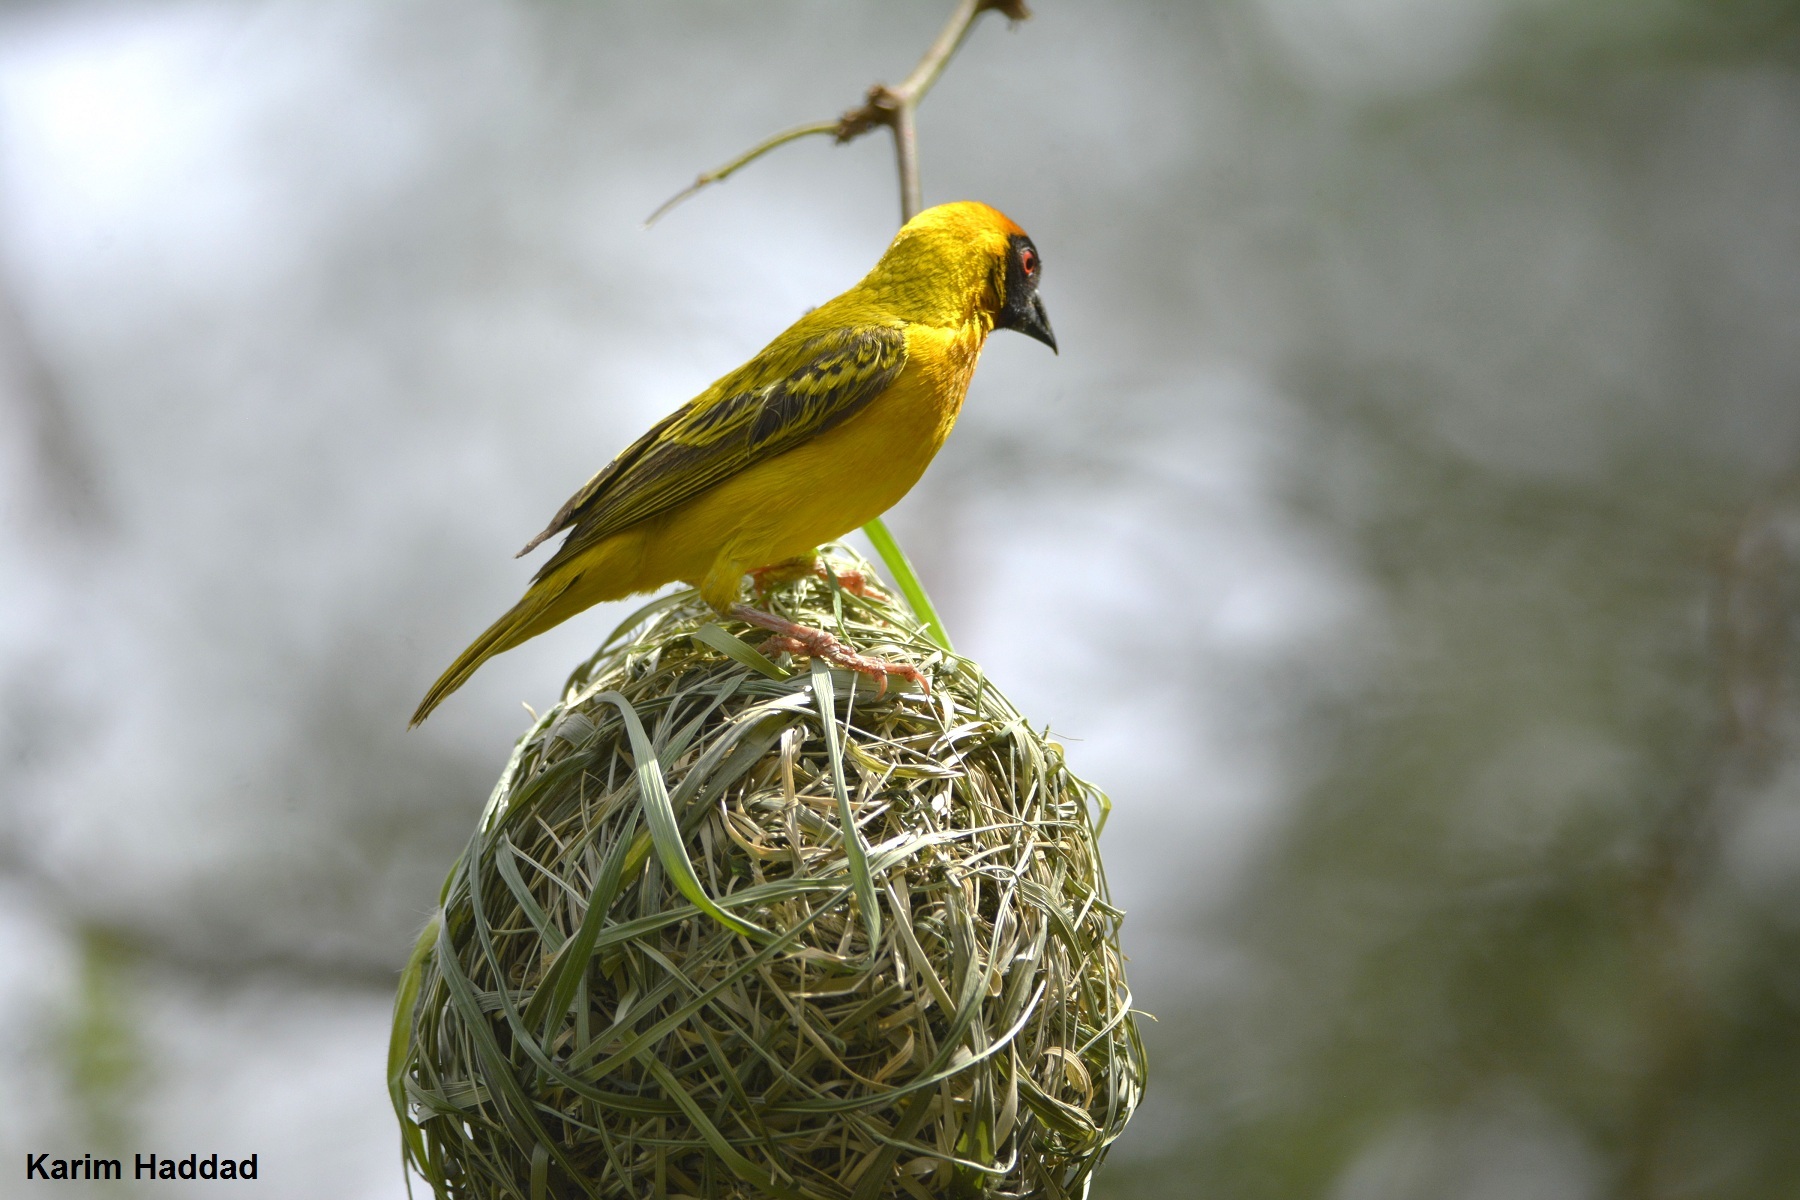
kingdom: Animalia
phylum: Chordata
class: Aves
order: Passeriformes
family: Ploceidae
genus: Ploceus
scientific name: Ploceus vitellinus
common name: Vitelline masked weaver
